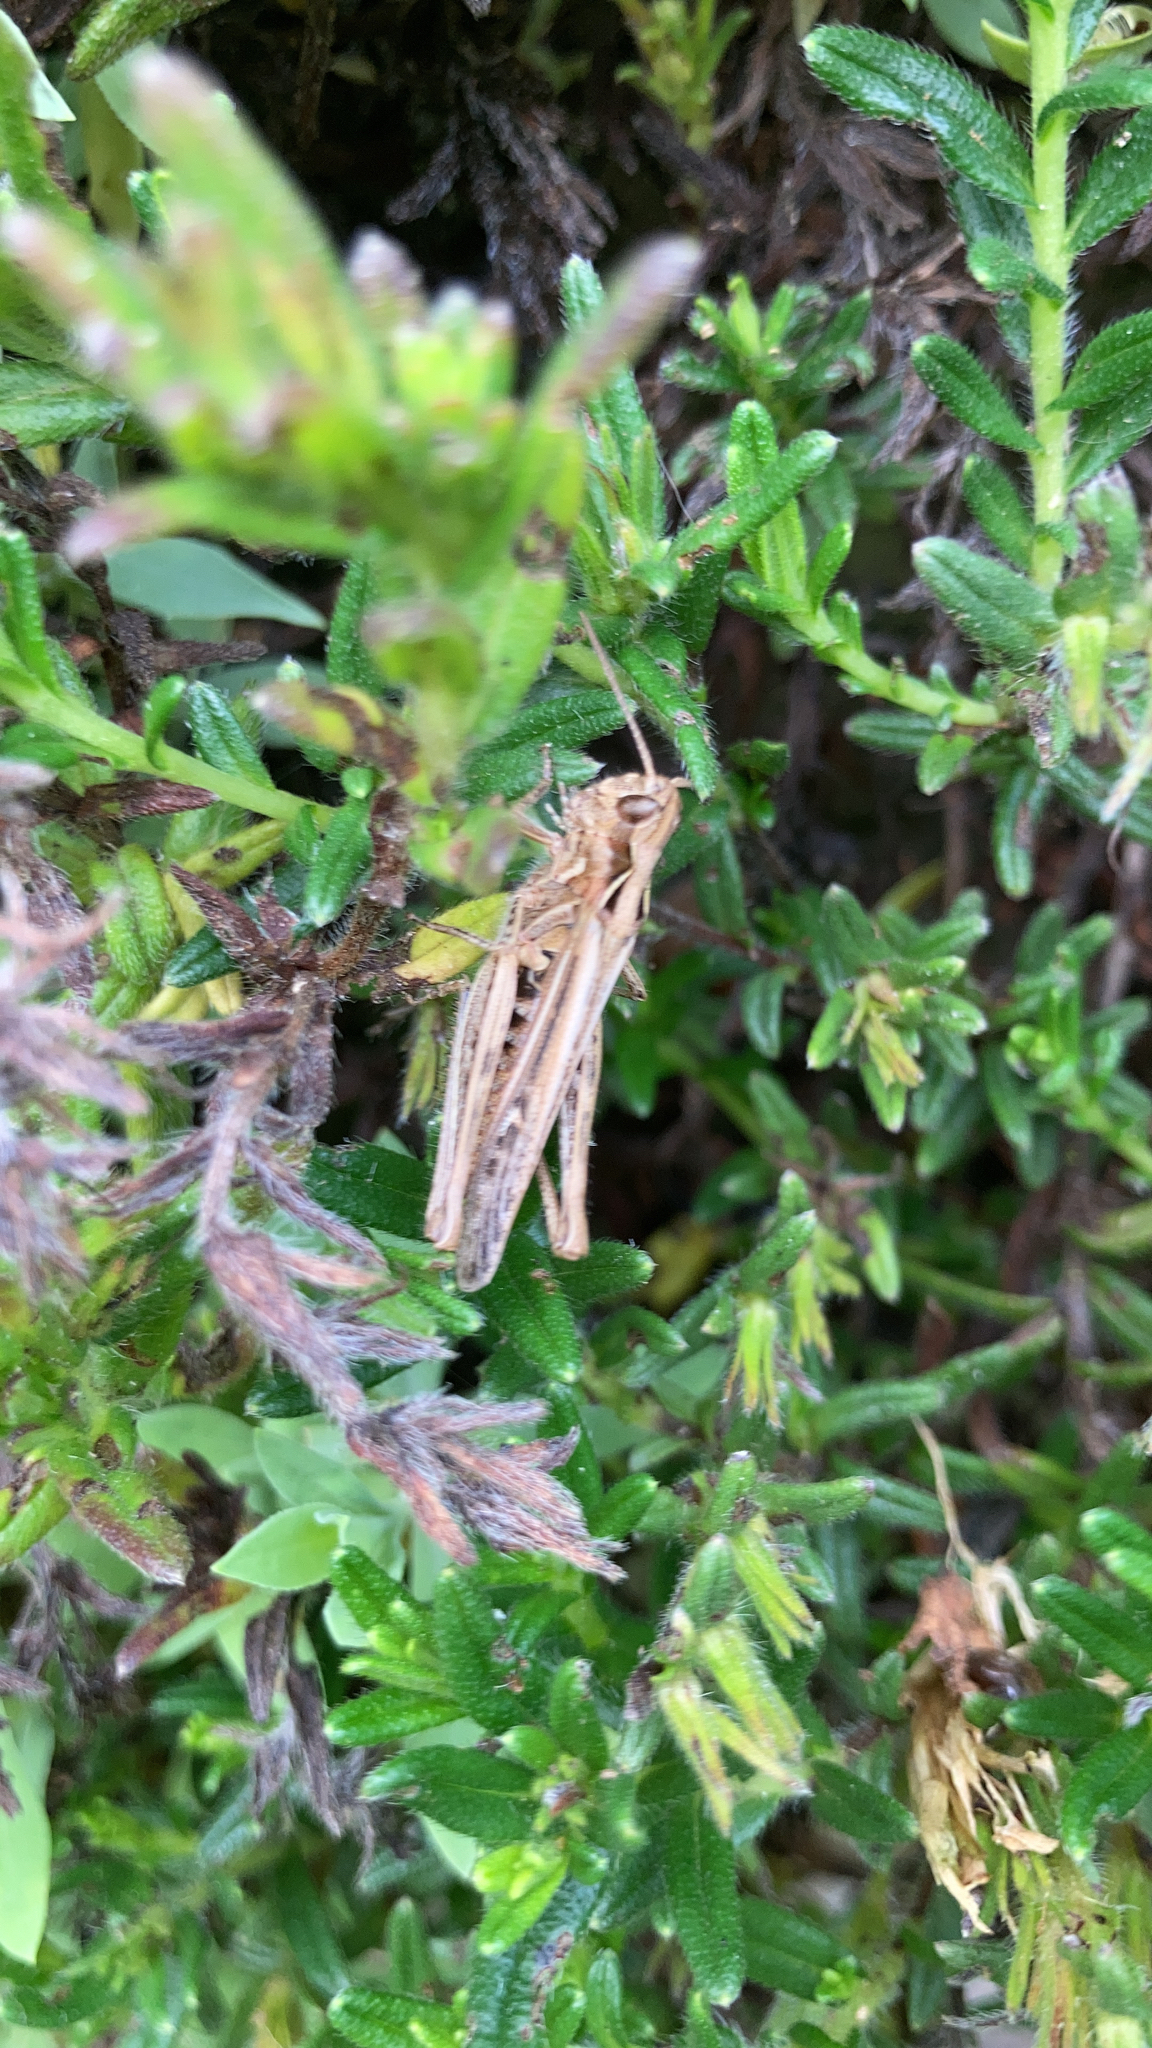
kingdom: Animalia
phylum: Arthropoda
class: Insecta
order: Orthoptera
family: Acrididae
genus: Chorthippus
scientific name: Chorthippus brunneus
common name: Field grasshopper
